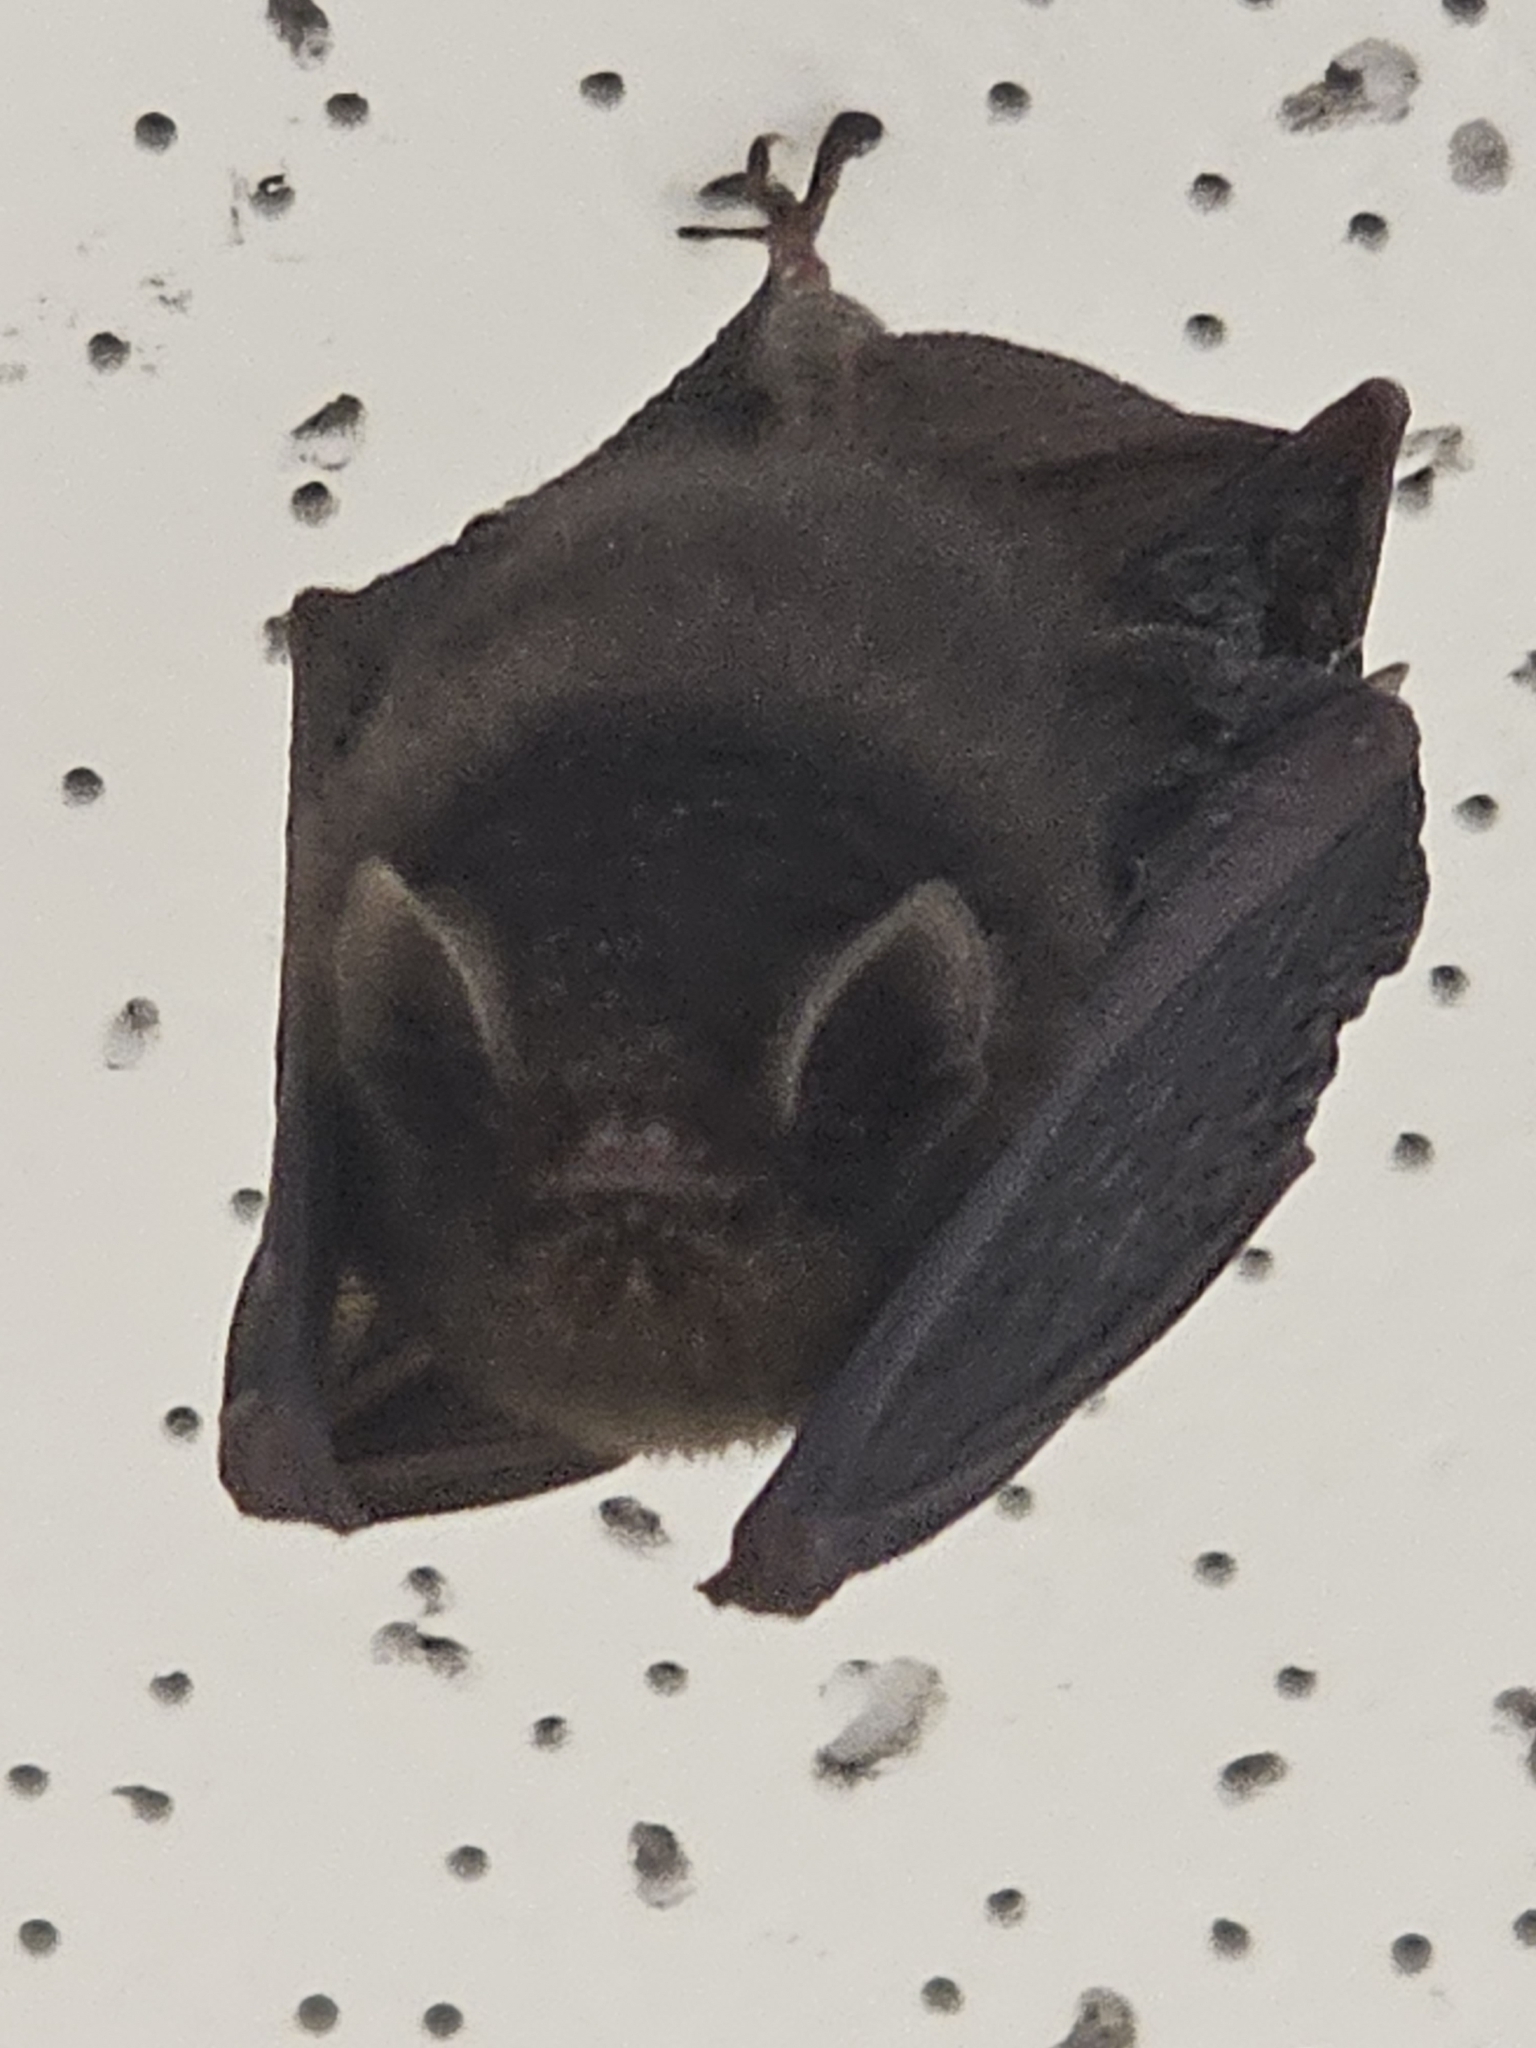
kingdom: Animalia
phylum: Chordata
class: Mammalia
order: Chiroptera
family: Furipteridae
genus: Furipterus
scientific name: Furipterus horrens
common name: Thumbless bat
